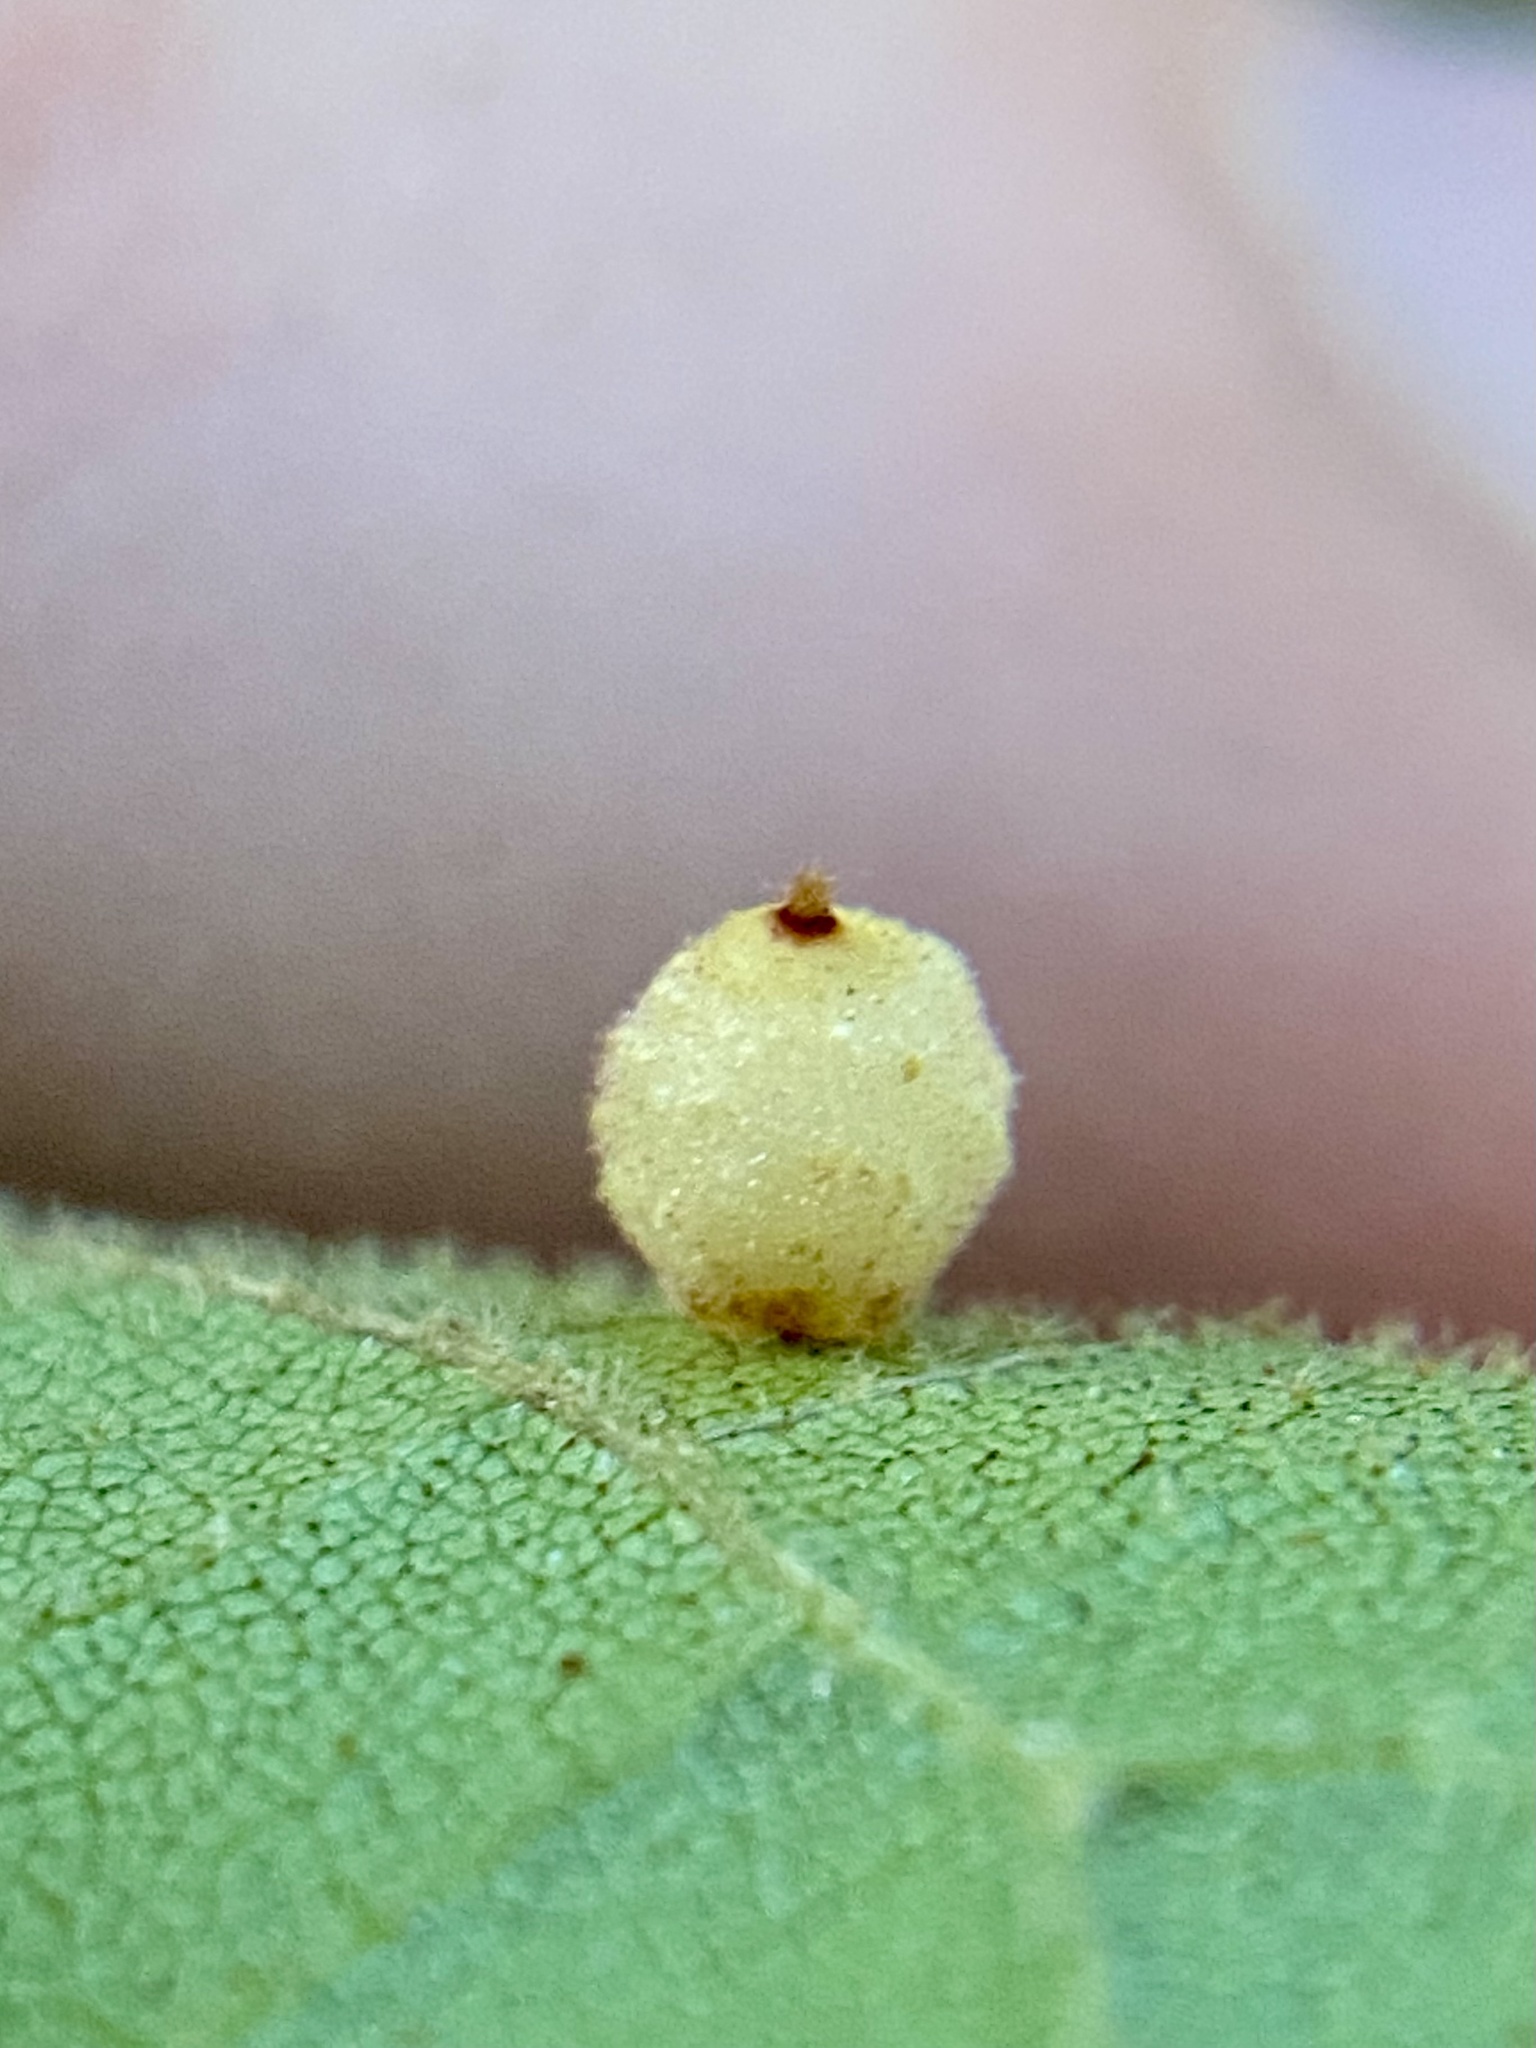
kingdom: Animalia
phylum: Arthropoda
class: Insecta
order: Diptera
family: Cecidomyiidae
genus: Caryomyia
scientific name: Caryomyia tuberidolium
